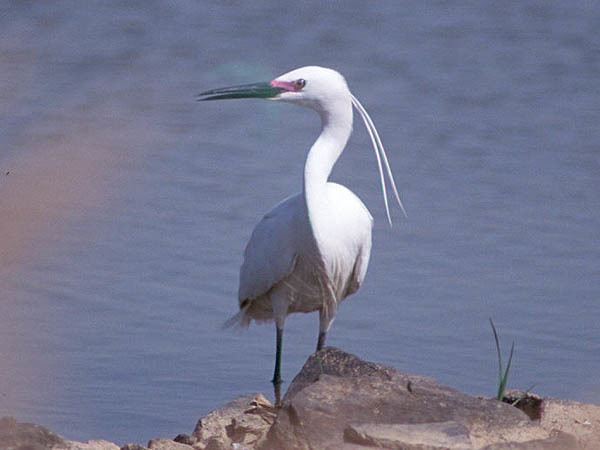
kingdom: Animalia
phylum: Chordata
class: Aves
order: Pelecaniformes
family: Ardeidae
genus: Egretta
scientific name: Egretta garzetta
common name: Little egret
